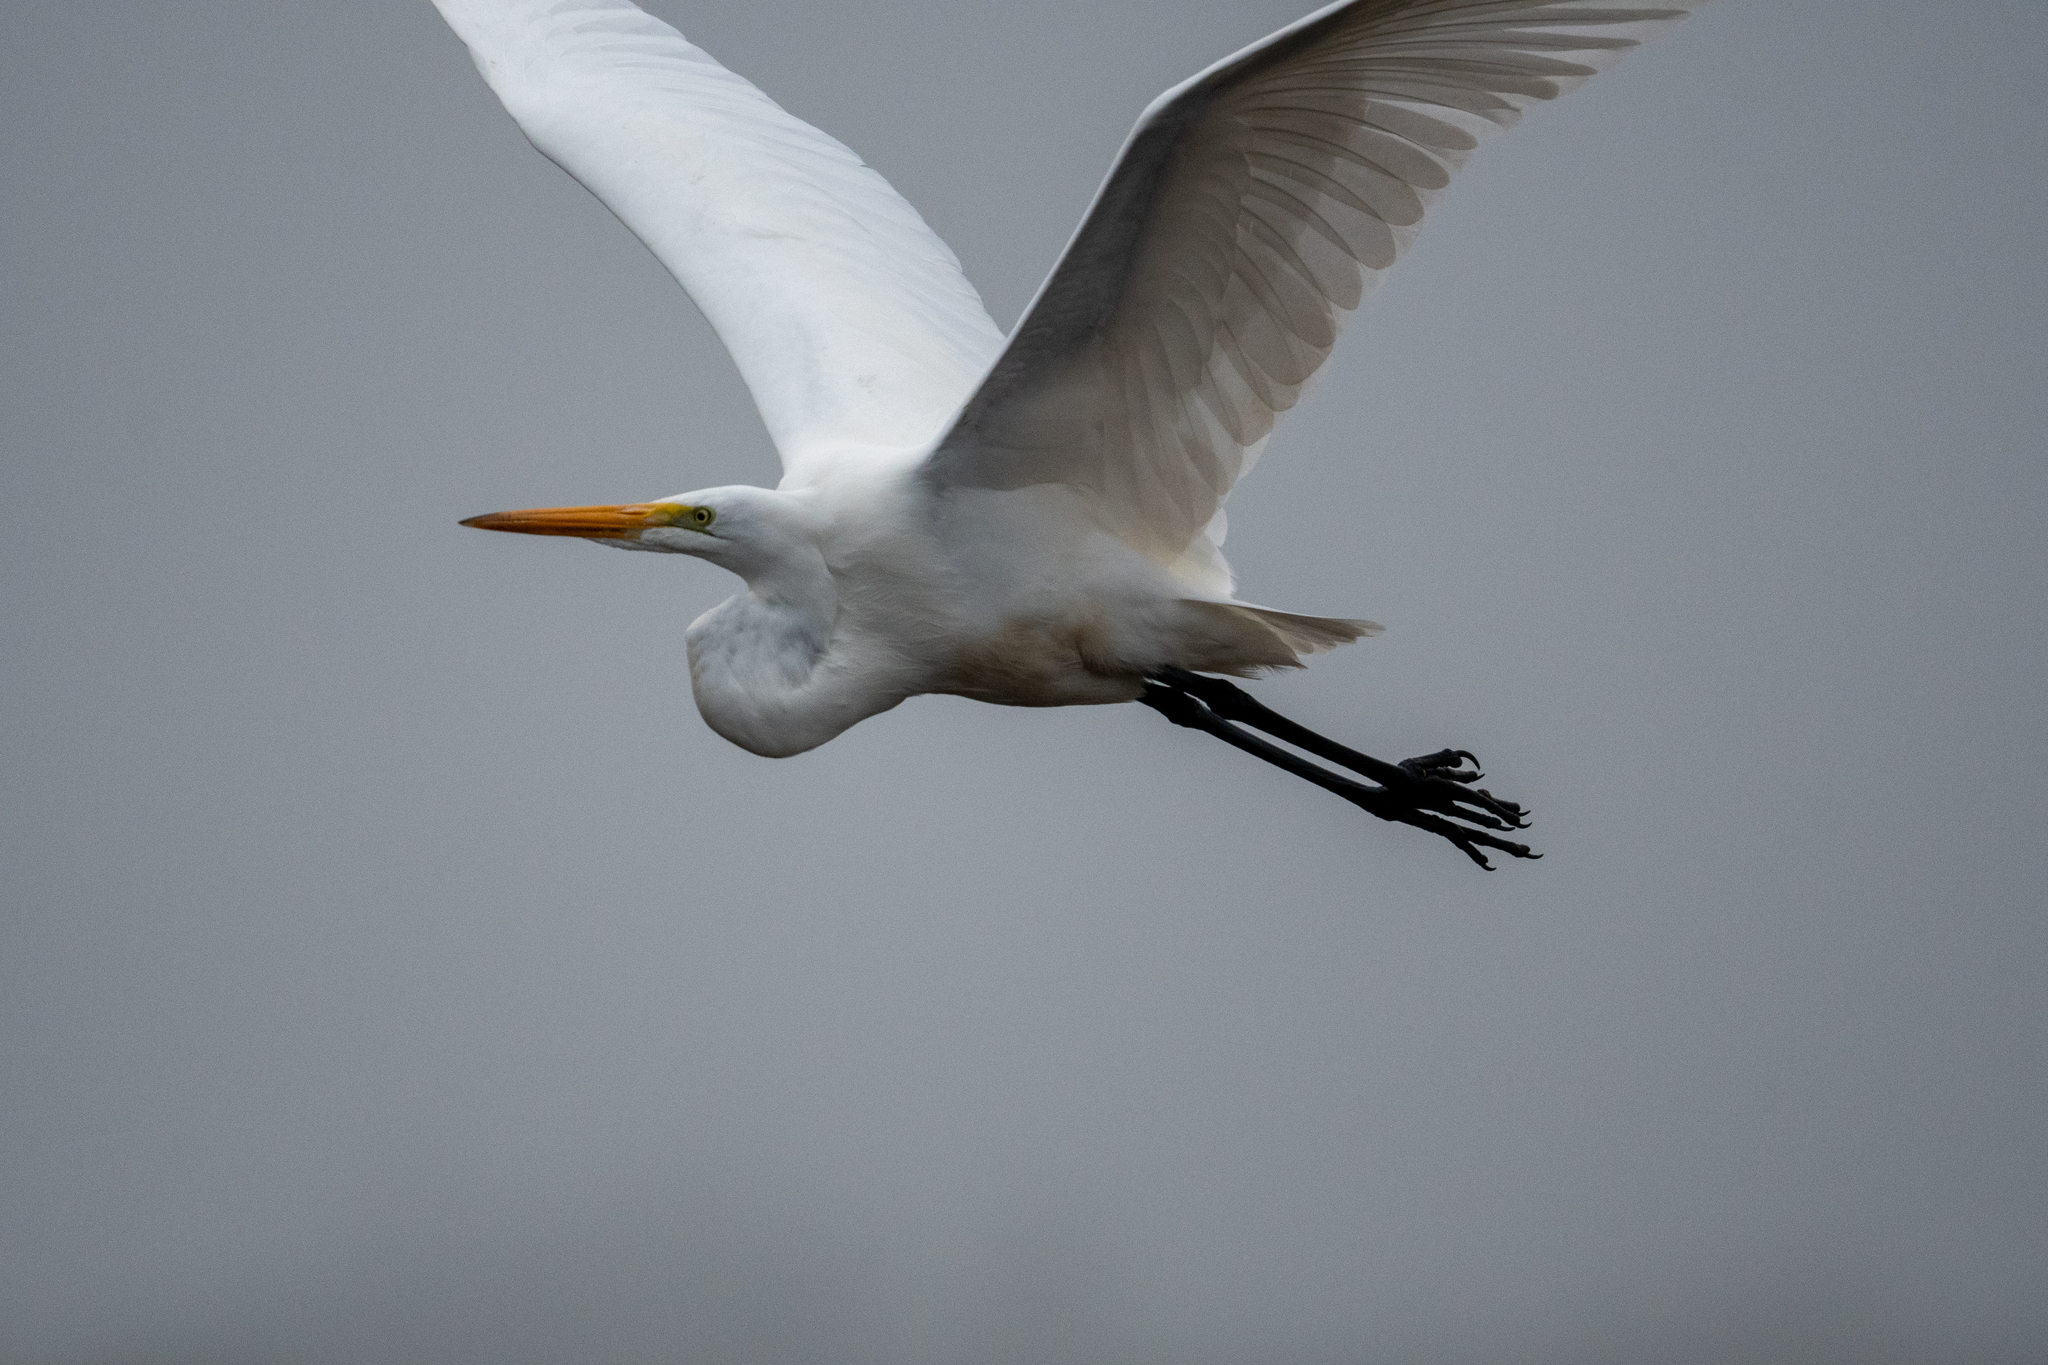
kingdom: Animalia
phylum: Chordata
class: Aves
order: Pelecaniformes
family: Ardeidae
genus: Ardea
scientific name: Ardea alba
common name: Great egret
